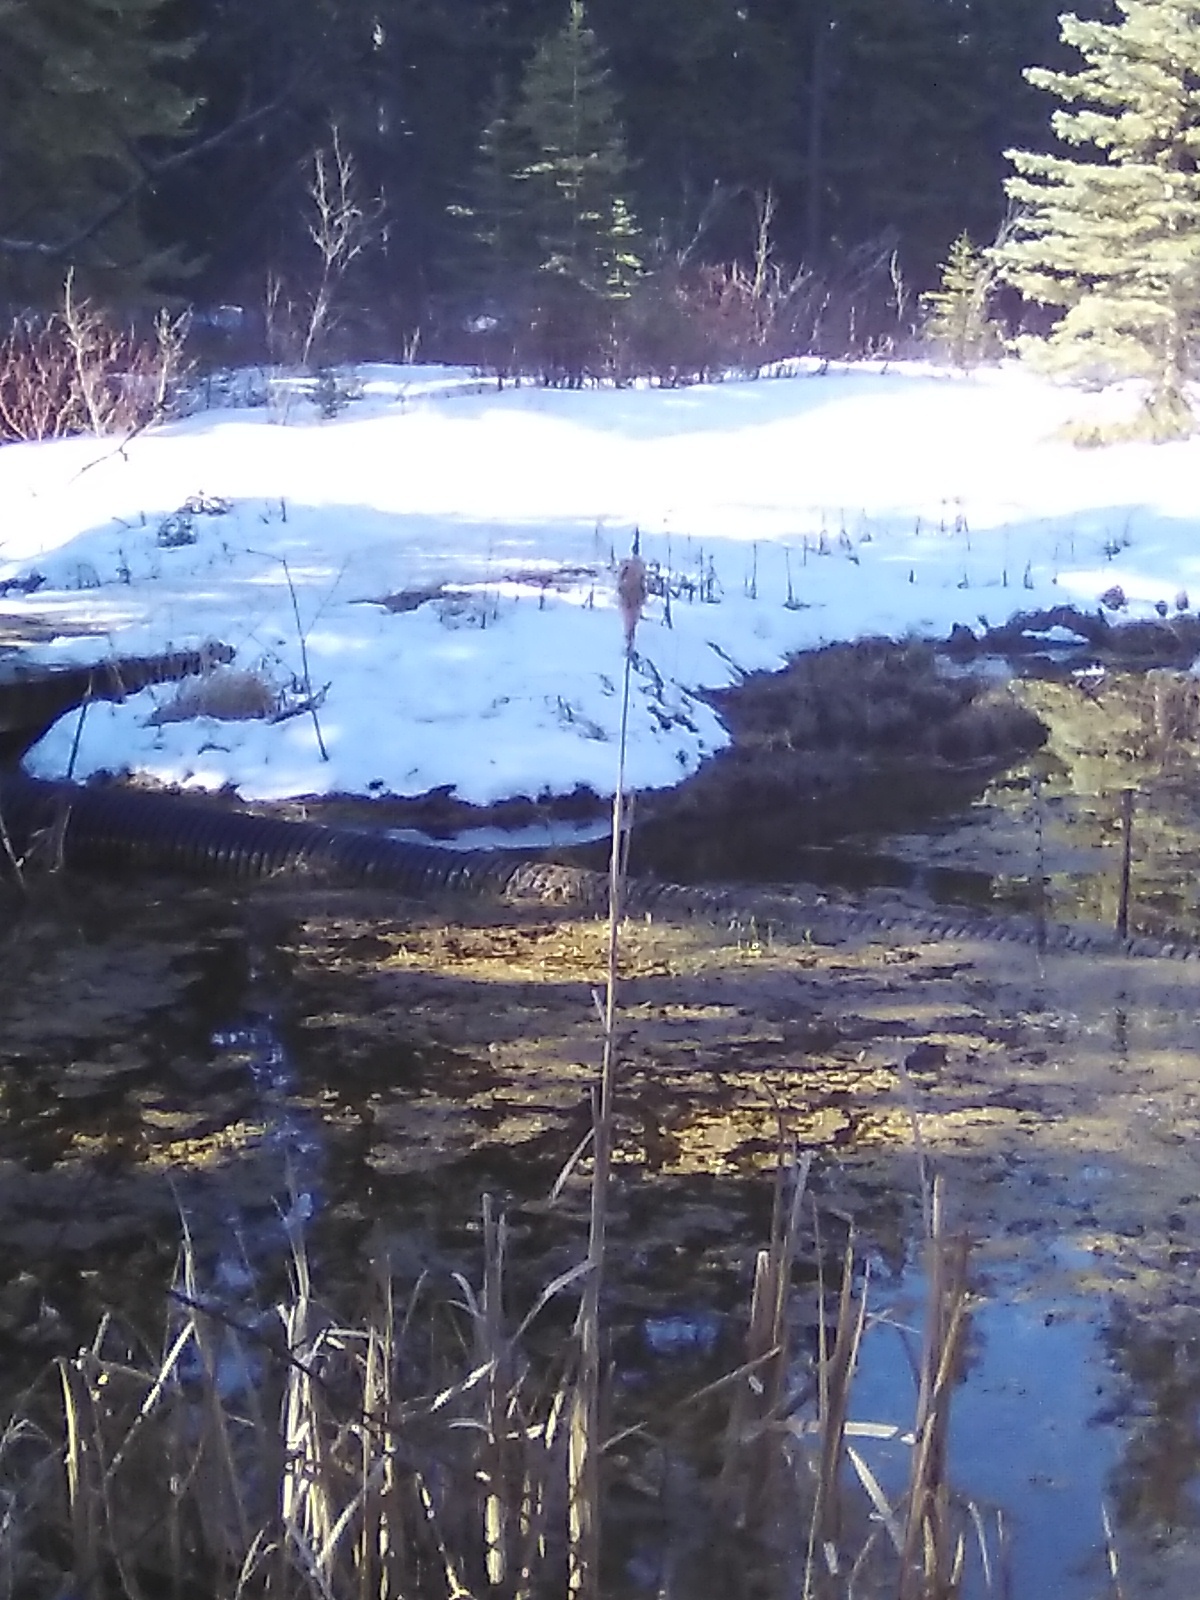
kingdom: Plantae
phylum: Tracheophyta
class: Liliopsida
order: Poales
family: Typhaceae
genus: Typha
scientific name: Typha latifolia
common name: Broadleaf cattail
